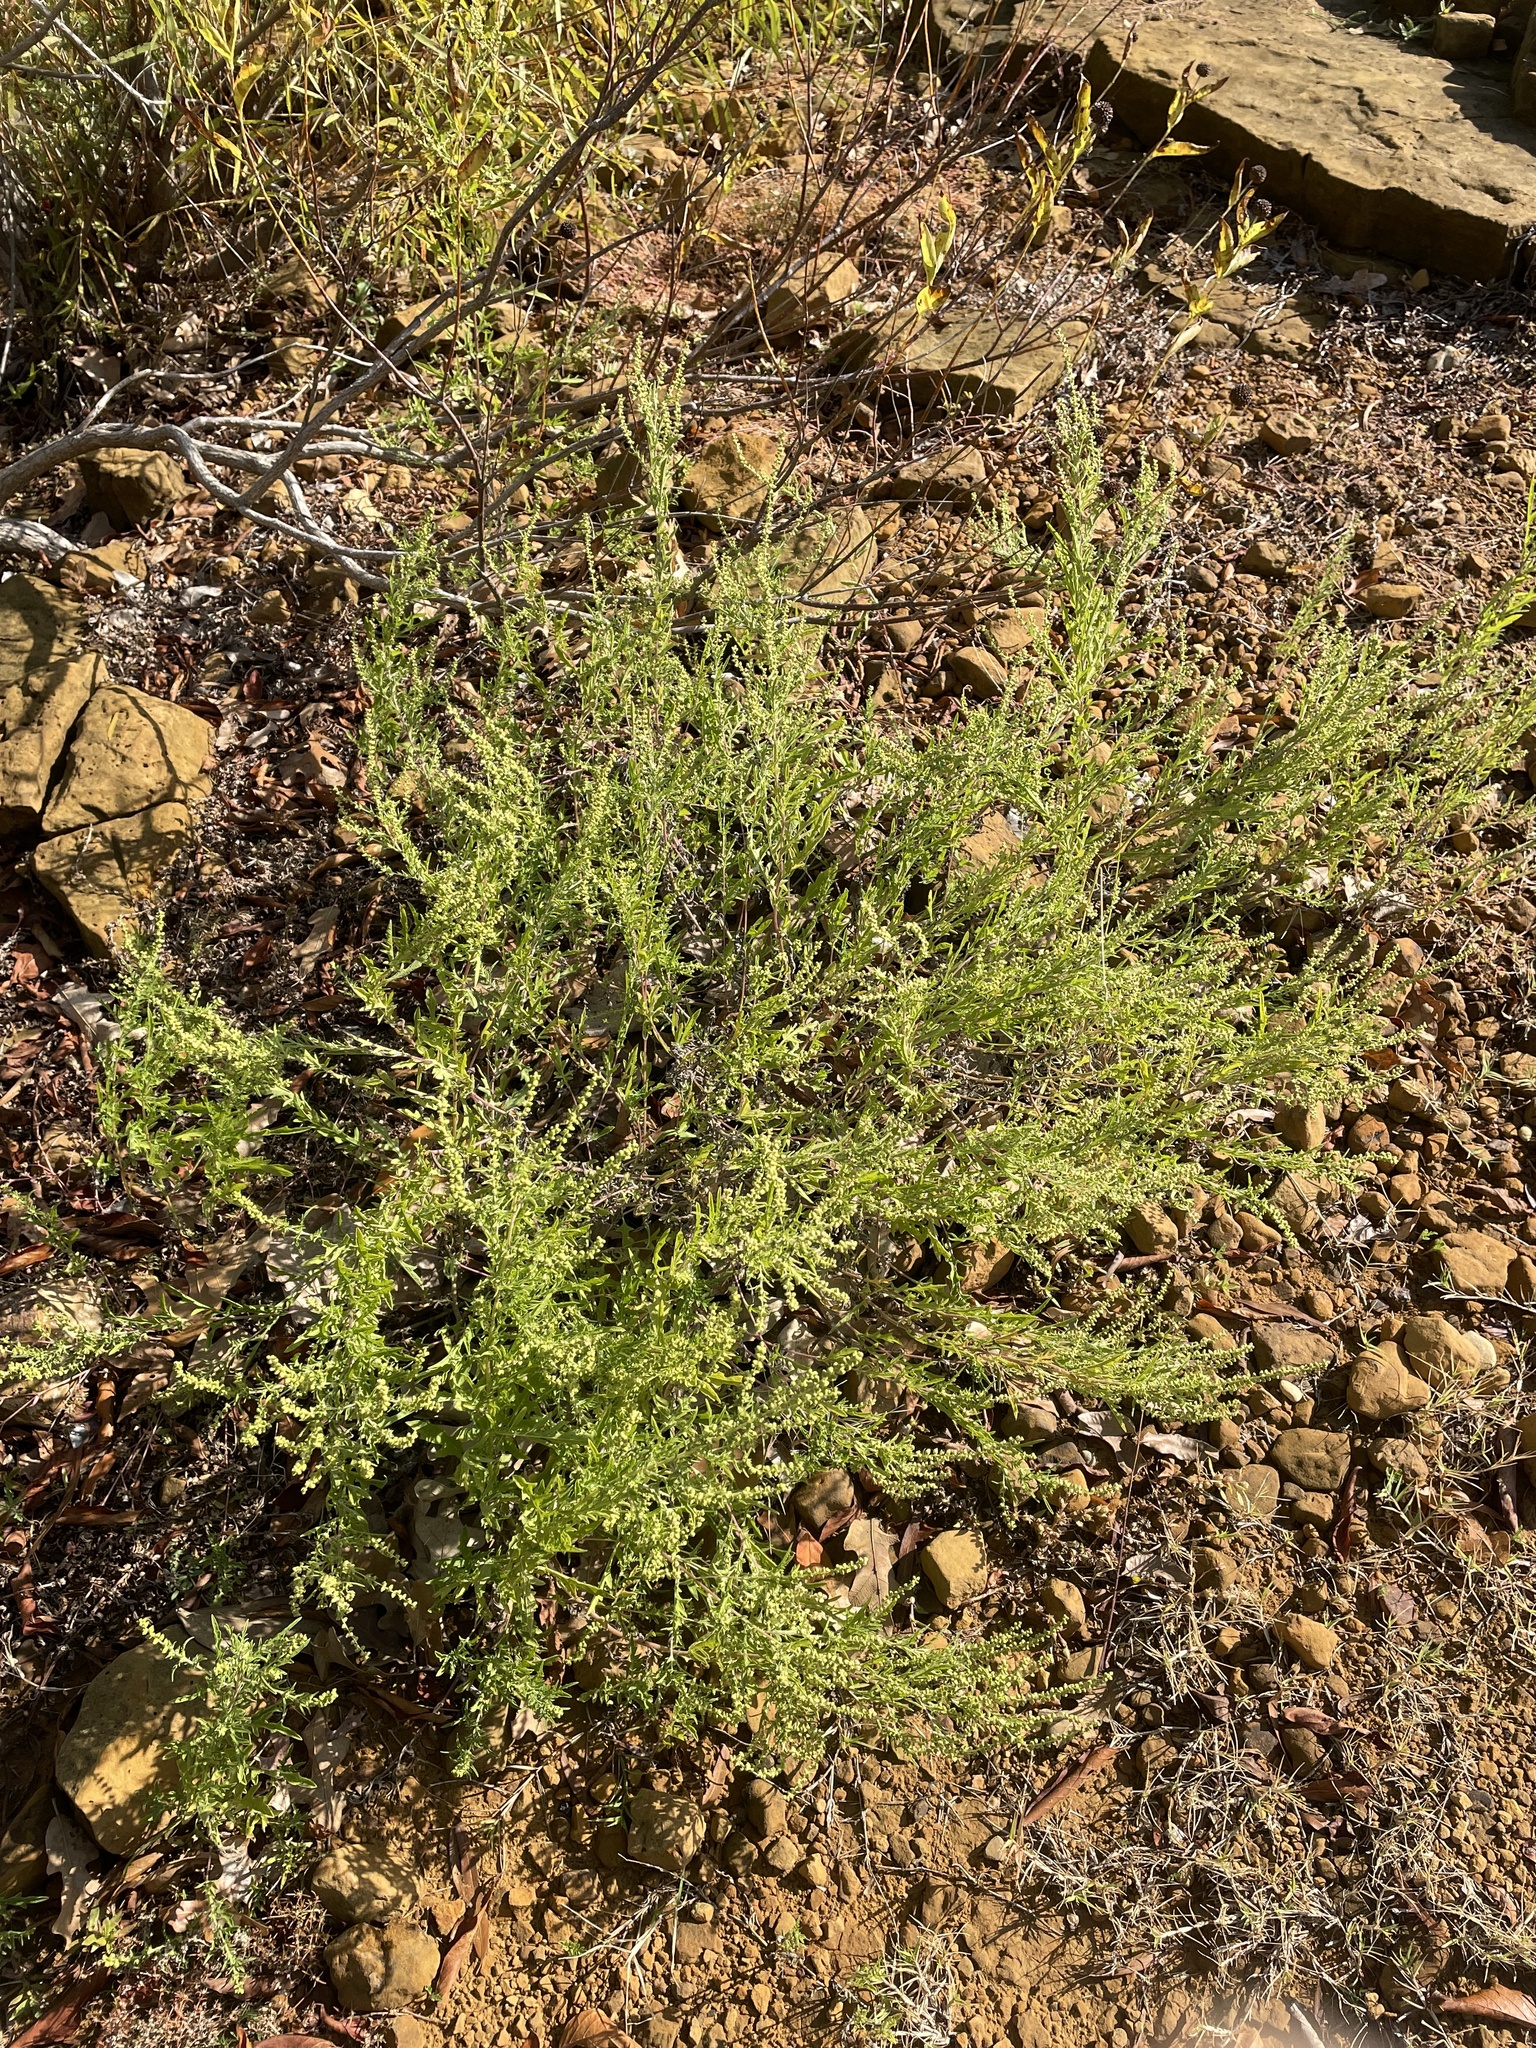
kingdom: Plantae
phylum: Tracheophyta
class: Magnoliopsida
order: Asterales
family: Asteraceae
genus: Ambrosia
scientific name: Ambrosia psilostachya
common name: Perennial ragweed
